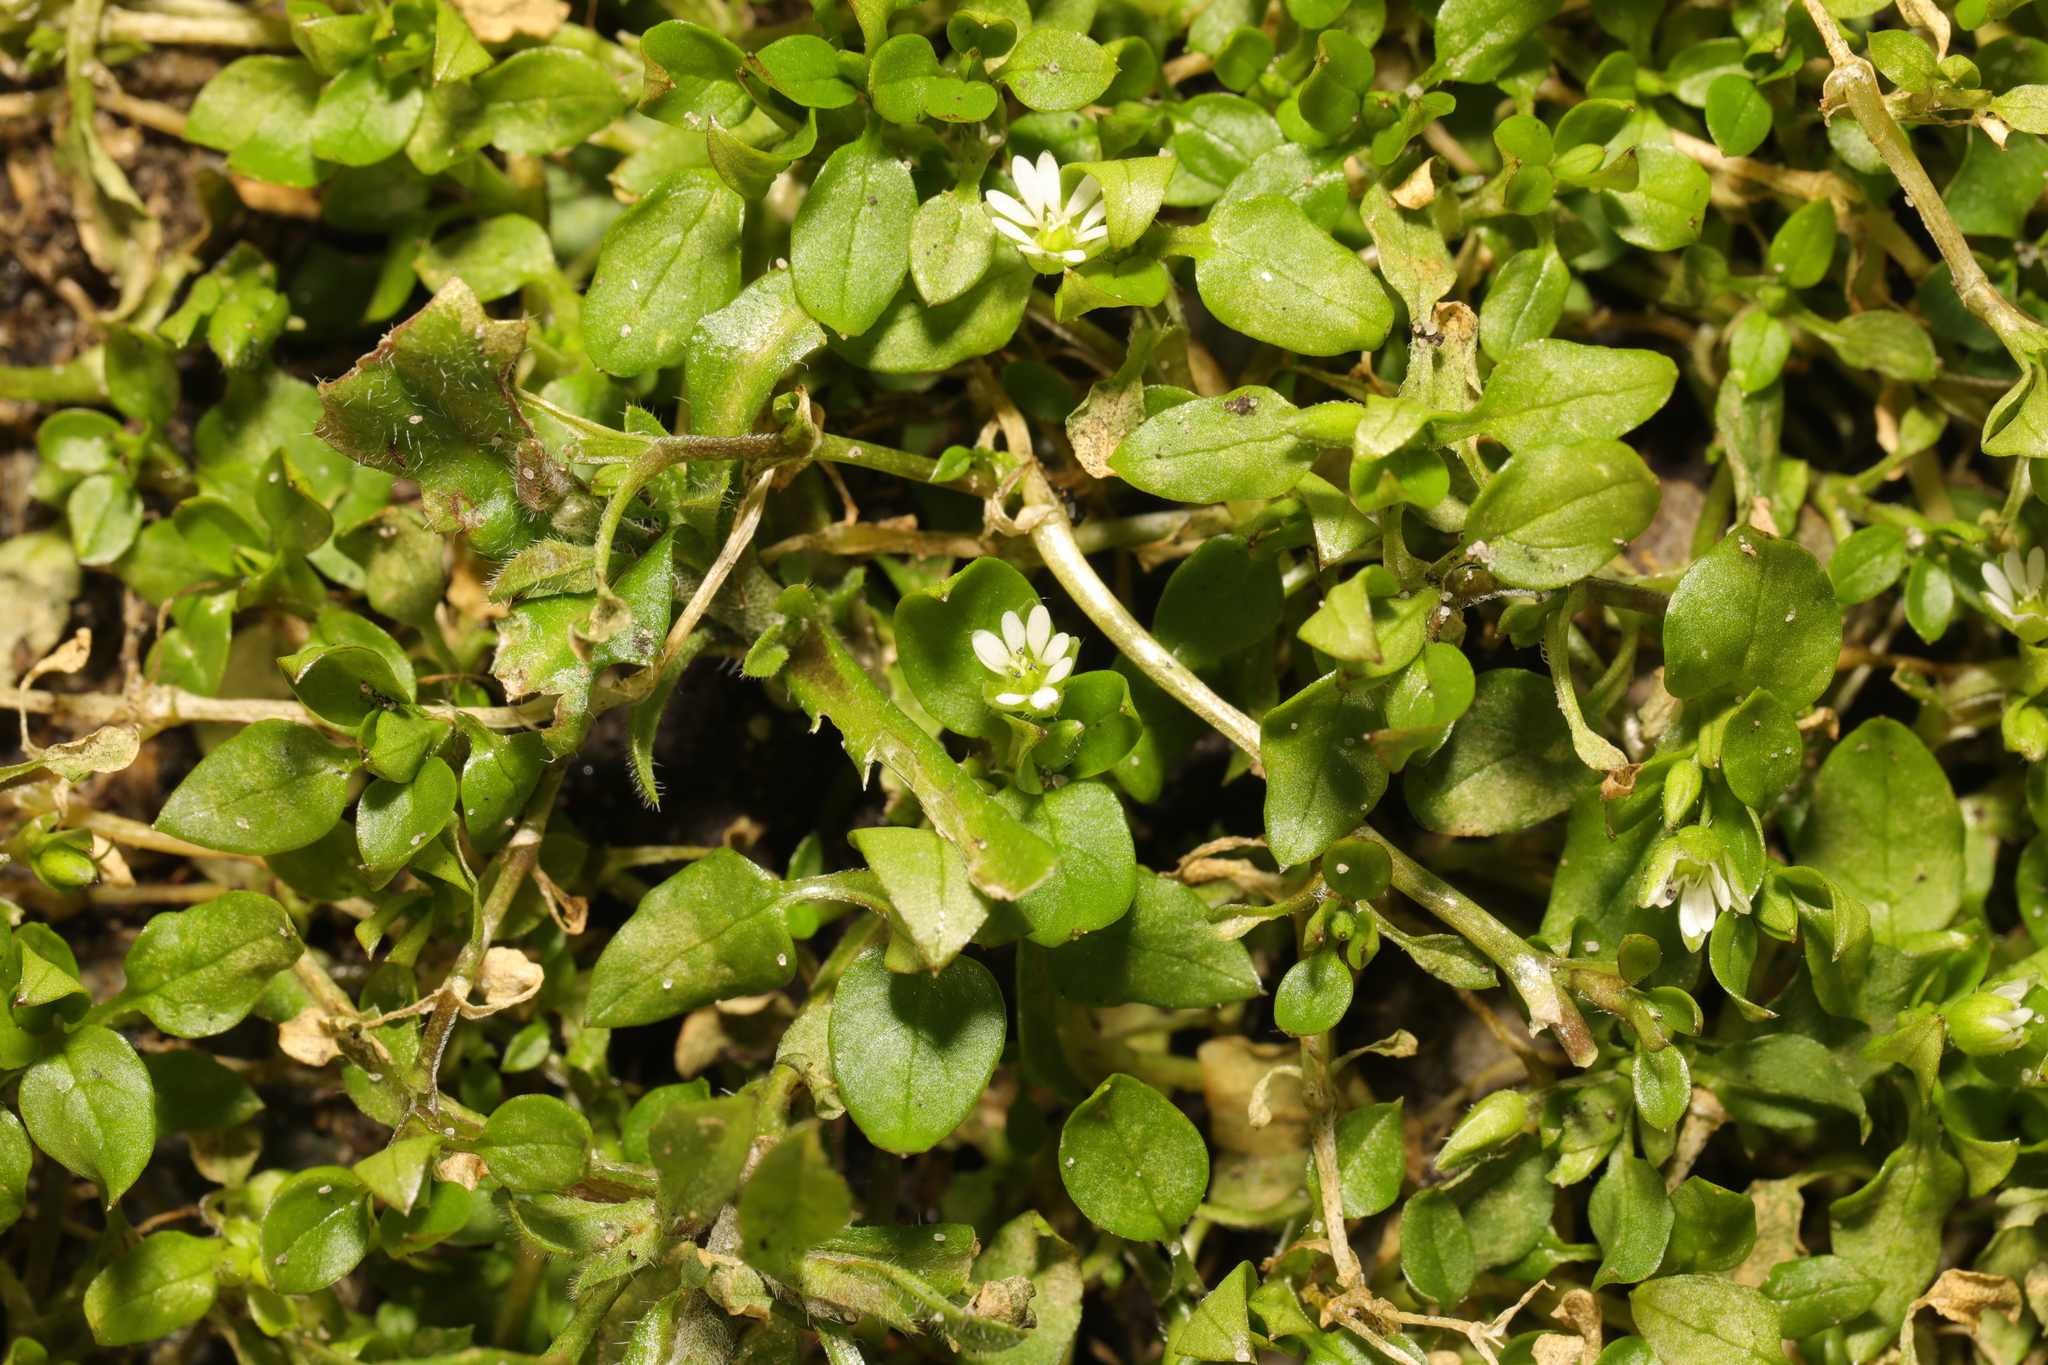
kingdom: Plantae
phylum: Tracheophyta
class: Magnoliopsida
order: Caryophyllales
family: Caryophyllaceae
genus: Stellaria
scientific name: Stellaria media
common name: Common chickweed
